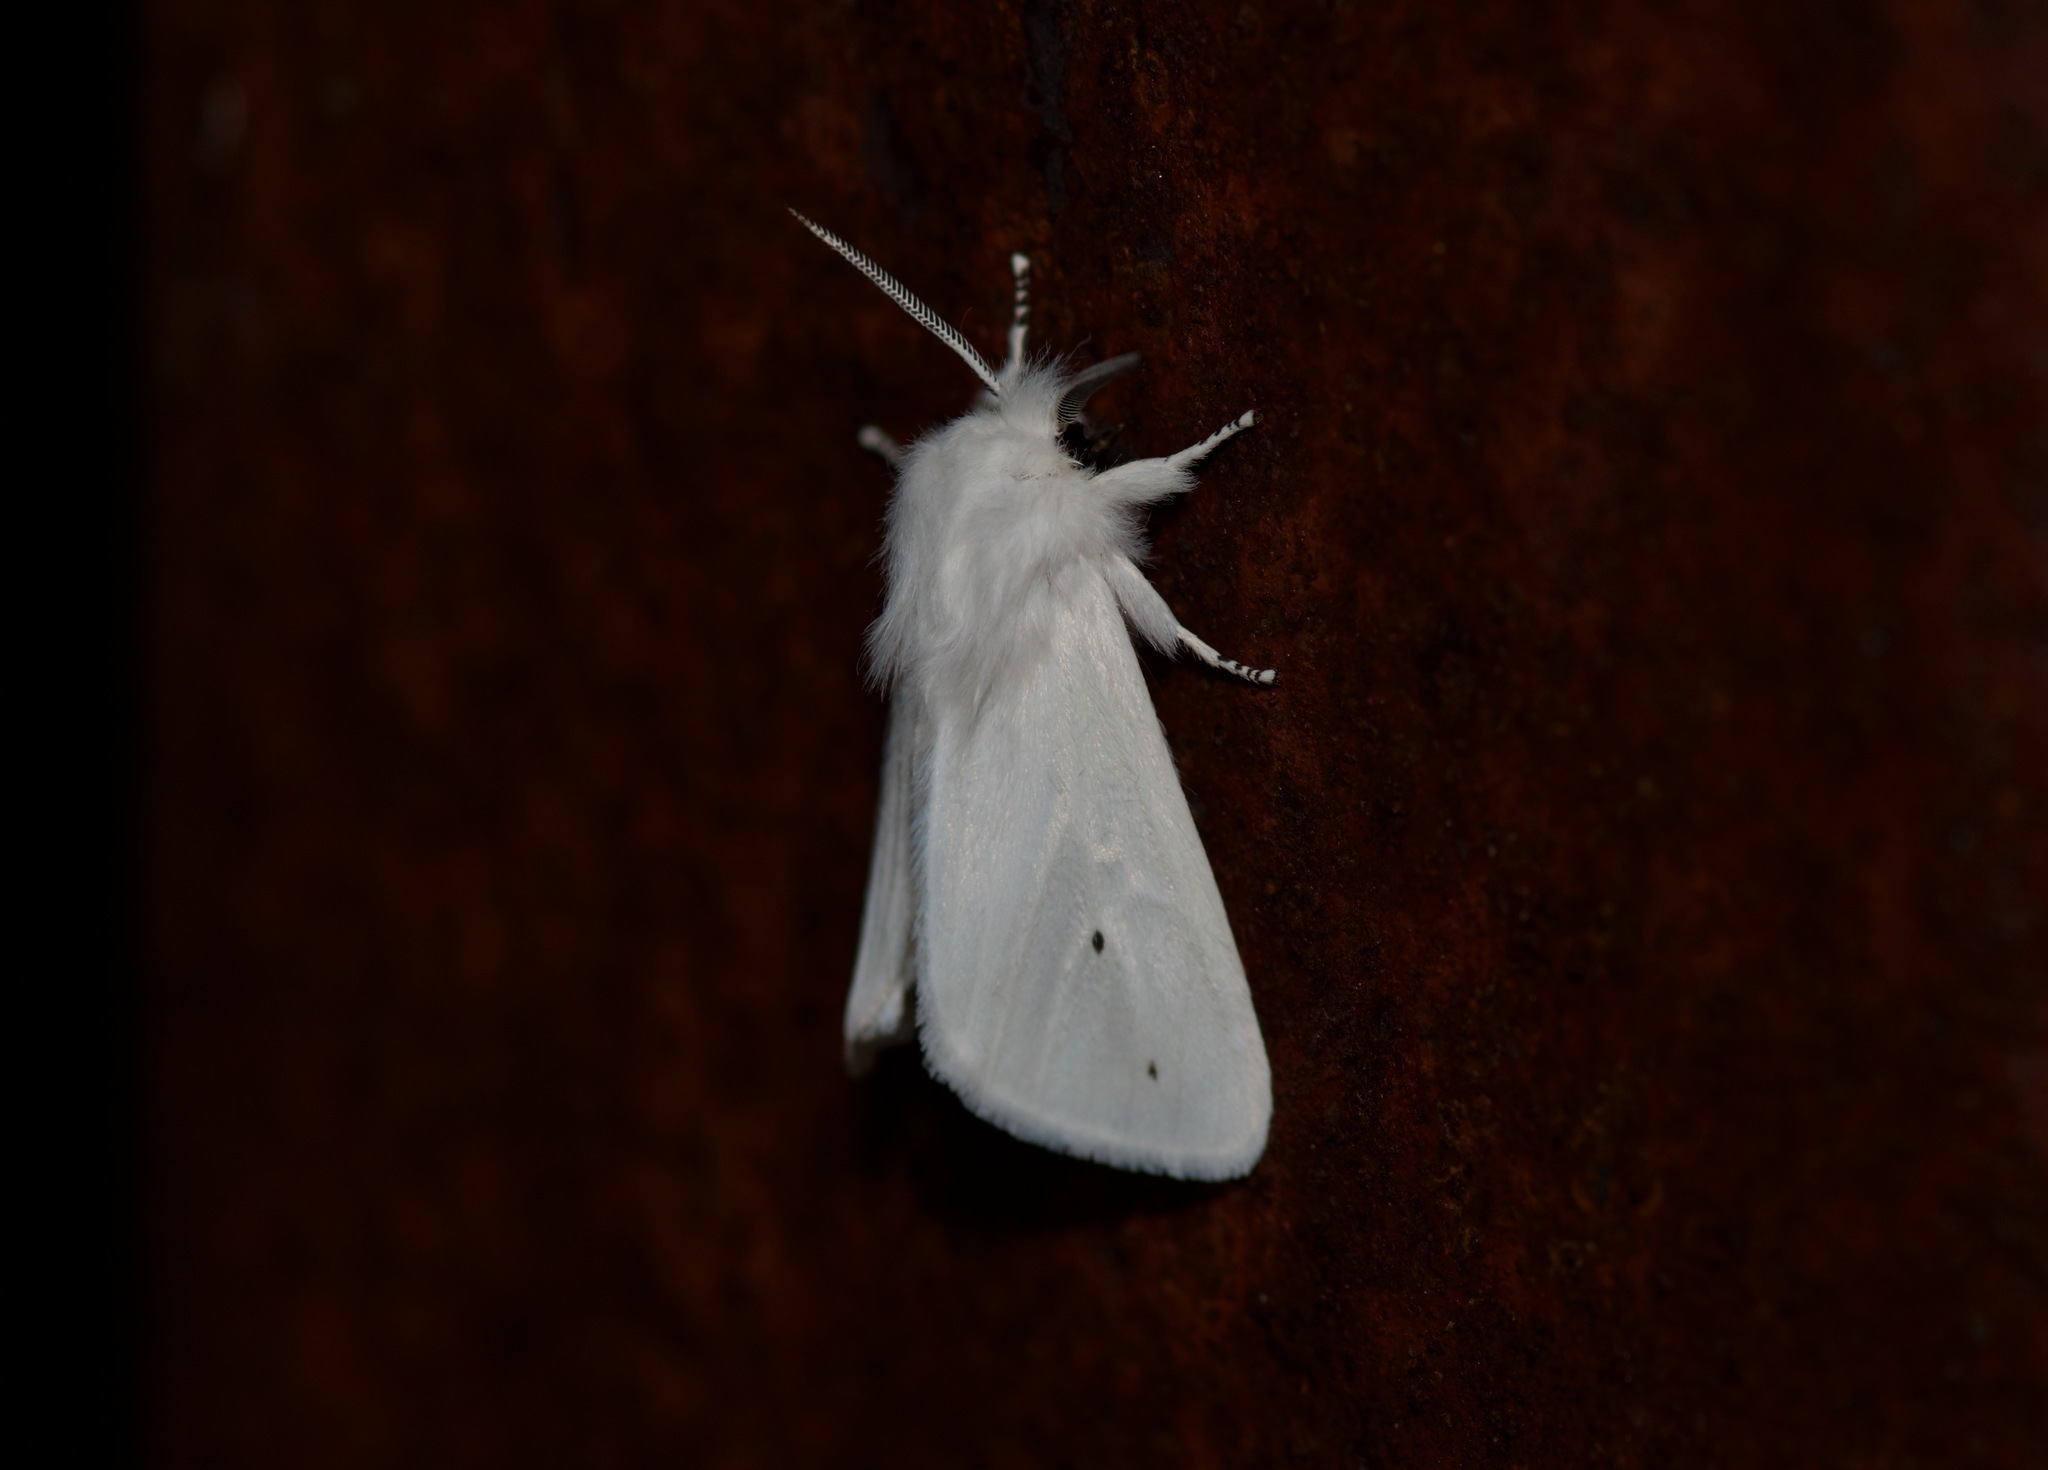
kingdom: Animalia
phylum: Arthropoda
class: Insecta
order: Lepidoptera
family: Erebidae
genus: Spilosoma
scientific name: Spilosoma virginica
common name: Virginia tiger moth
